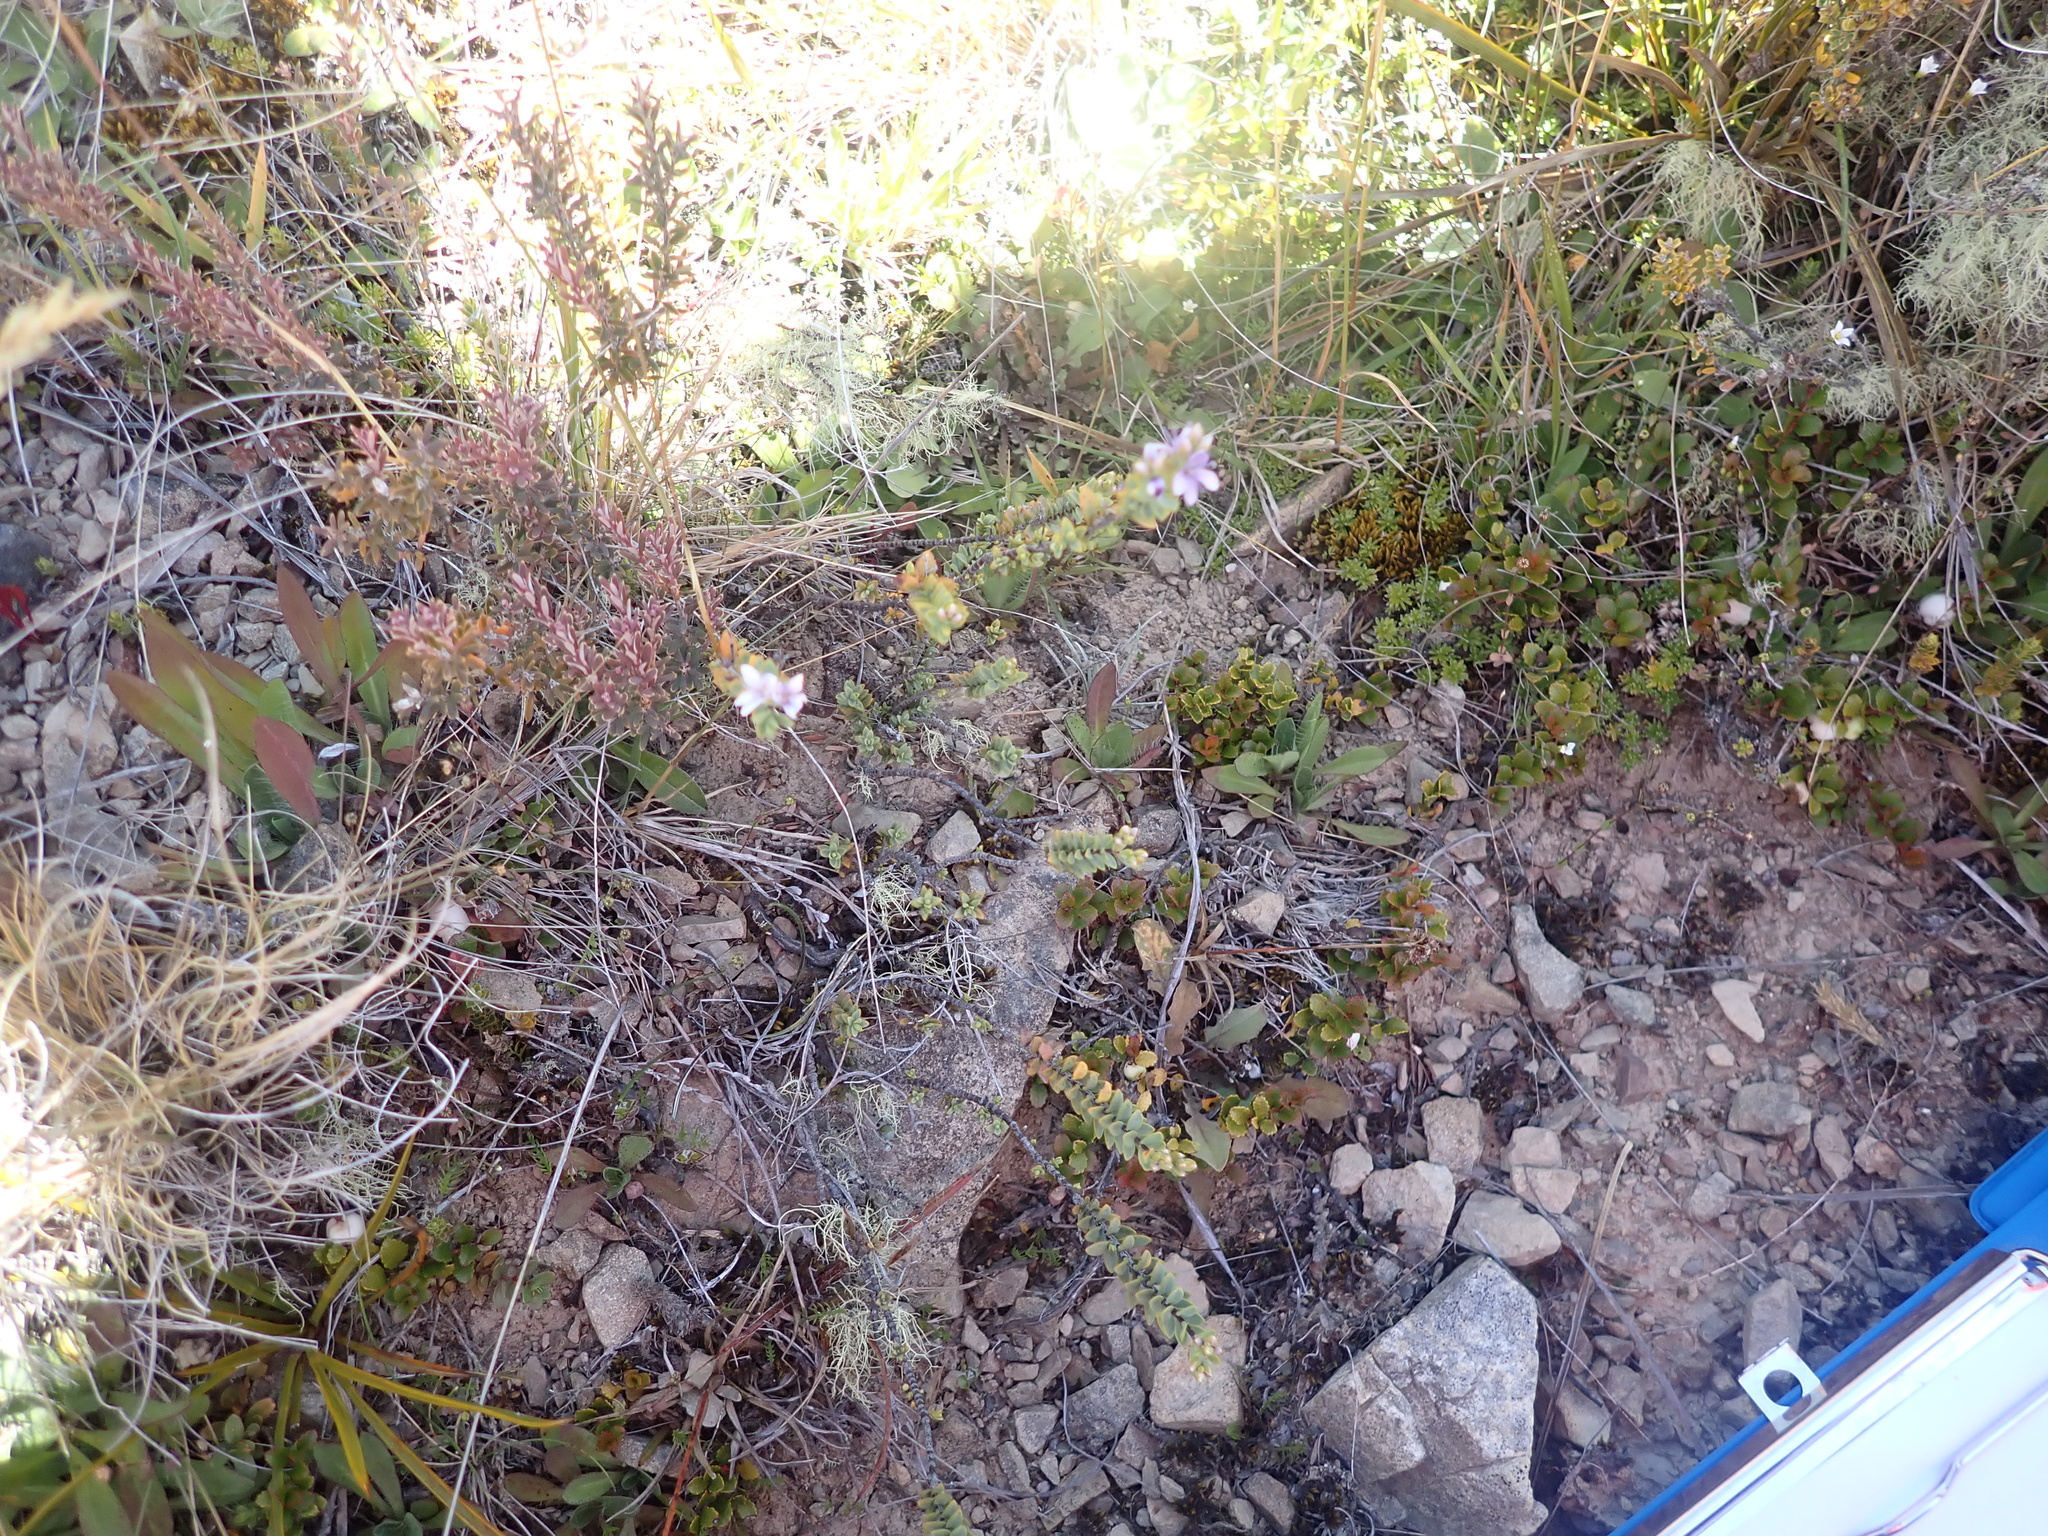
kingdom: Plantae
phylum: Tracheophyta
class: Magnoliopsida
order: Lamiales
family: Plantaginaceae
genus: Veronica
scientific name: Veronica pimeleoides
